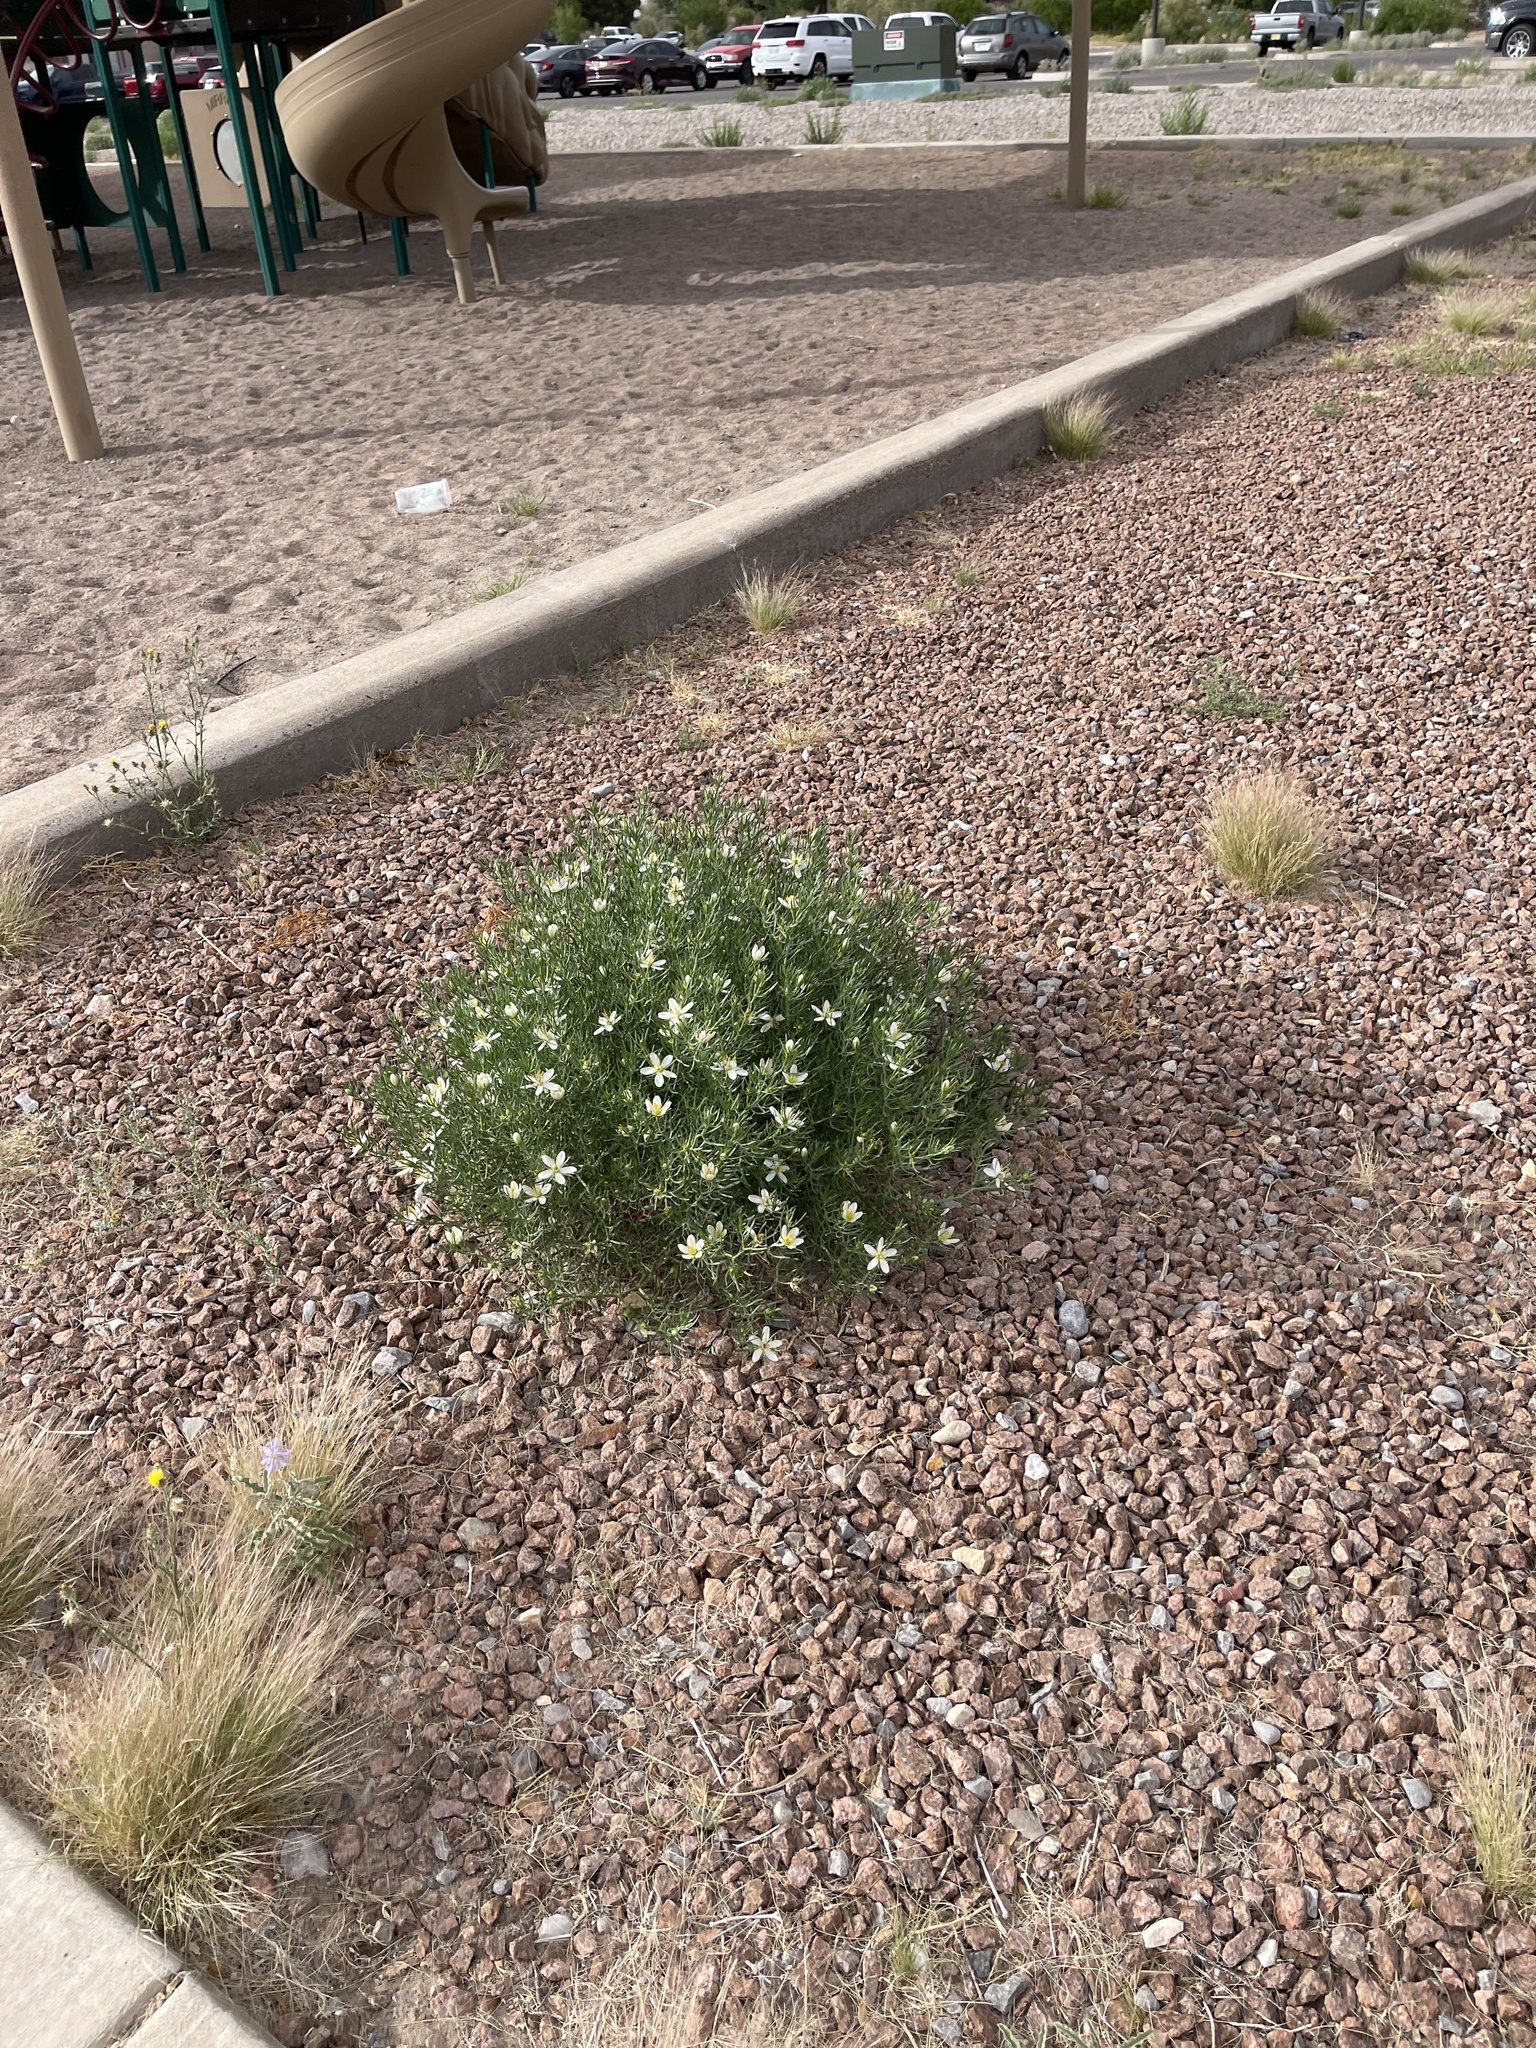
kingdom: Plantae
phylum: Tracheophyta
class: Magnoliopsida
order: Sapindales
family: Tetradiclidaceae
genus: Peganum
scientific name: Peganum harmala
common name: Harmal peganum
